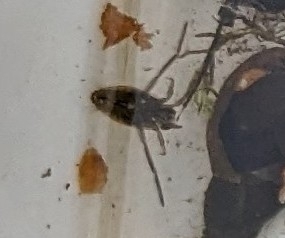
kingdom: Animalia
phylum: Arthropoda
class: Insecta
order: Hemiptera
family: Notonectidae
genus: Notonecta
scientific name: Notonecta glauca
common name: Common water-boatman
